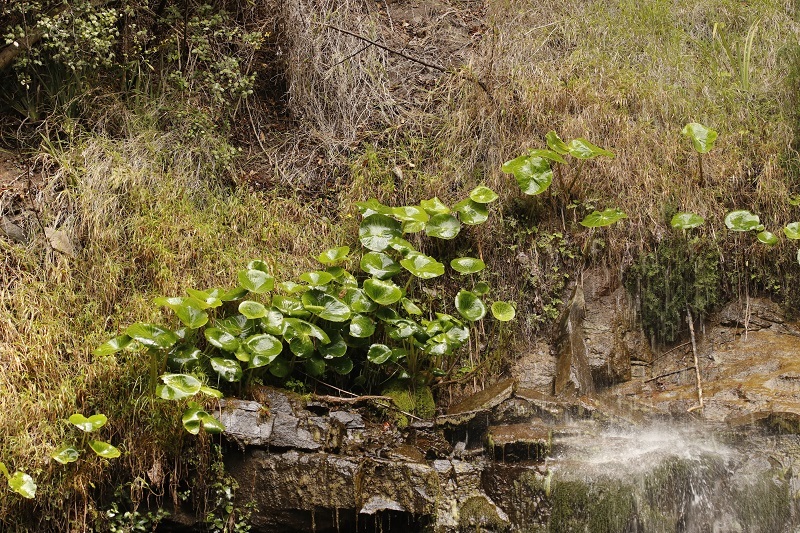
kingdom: Plantae
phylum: Tracheophyta
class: Magnoliopsida
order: Ranunculales
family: Ranunculaceae
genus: Peltocalathos
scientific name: Peltocalathos baurii
